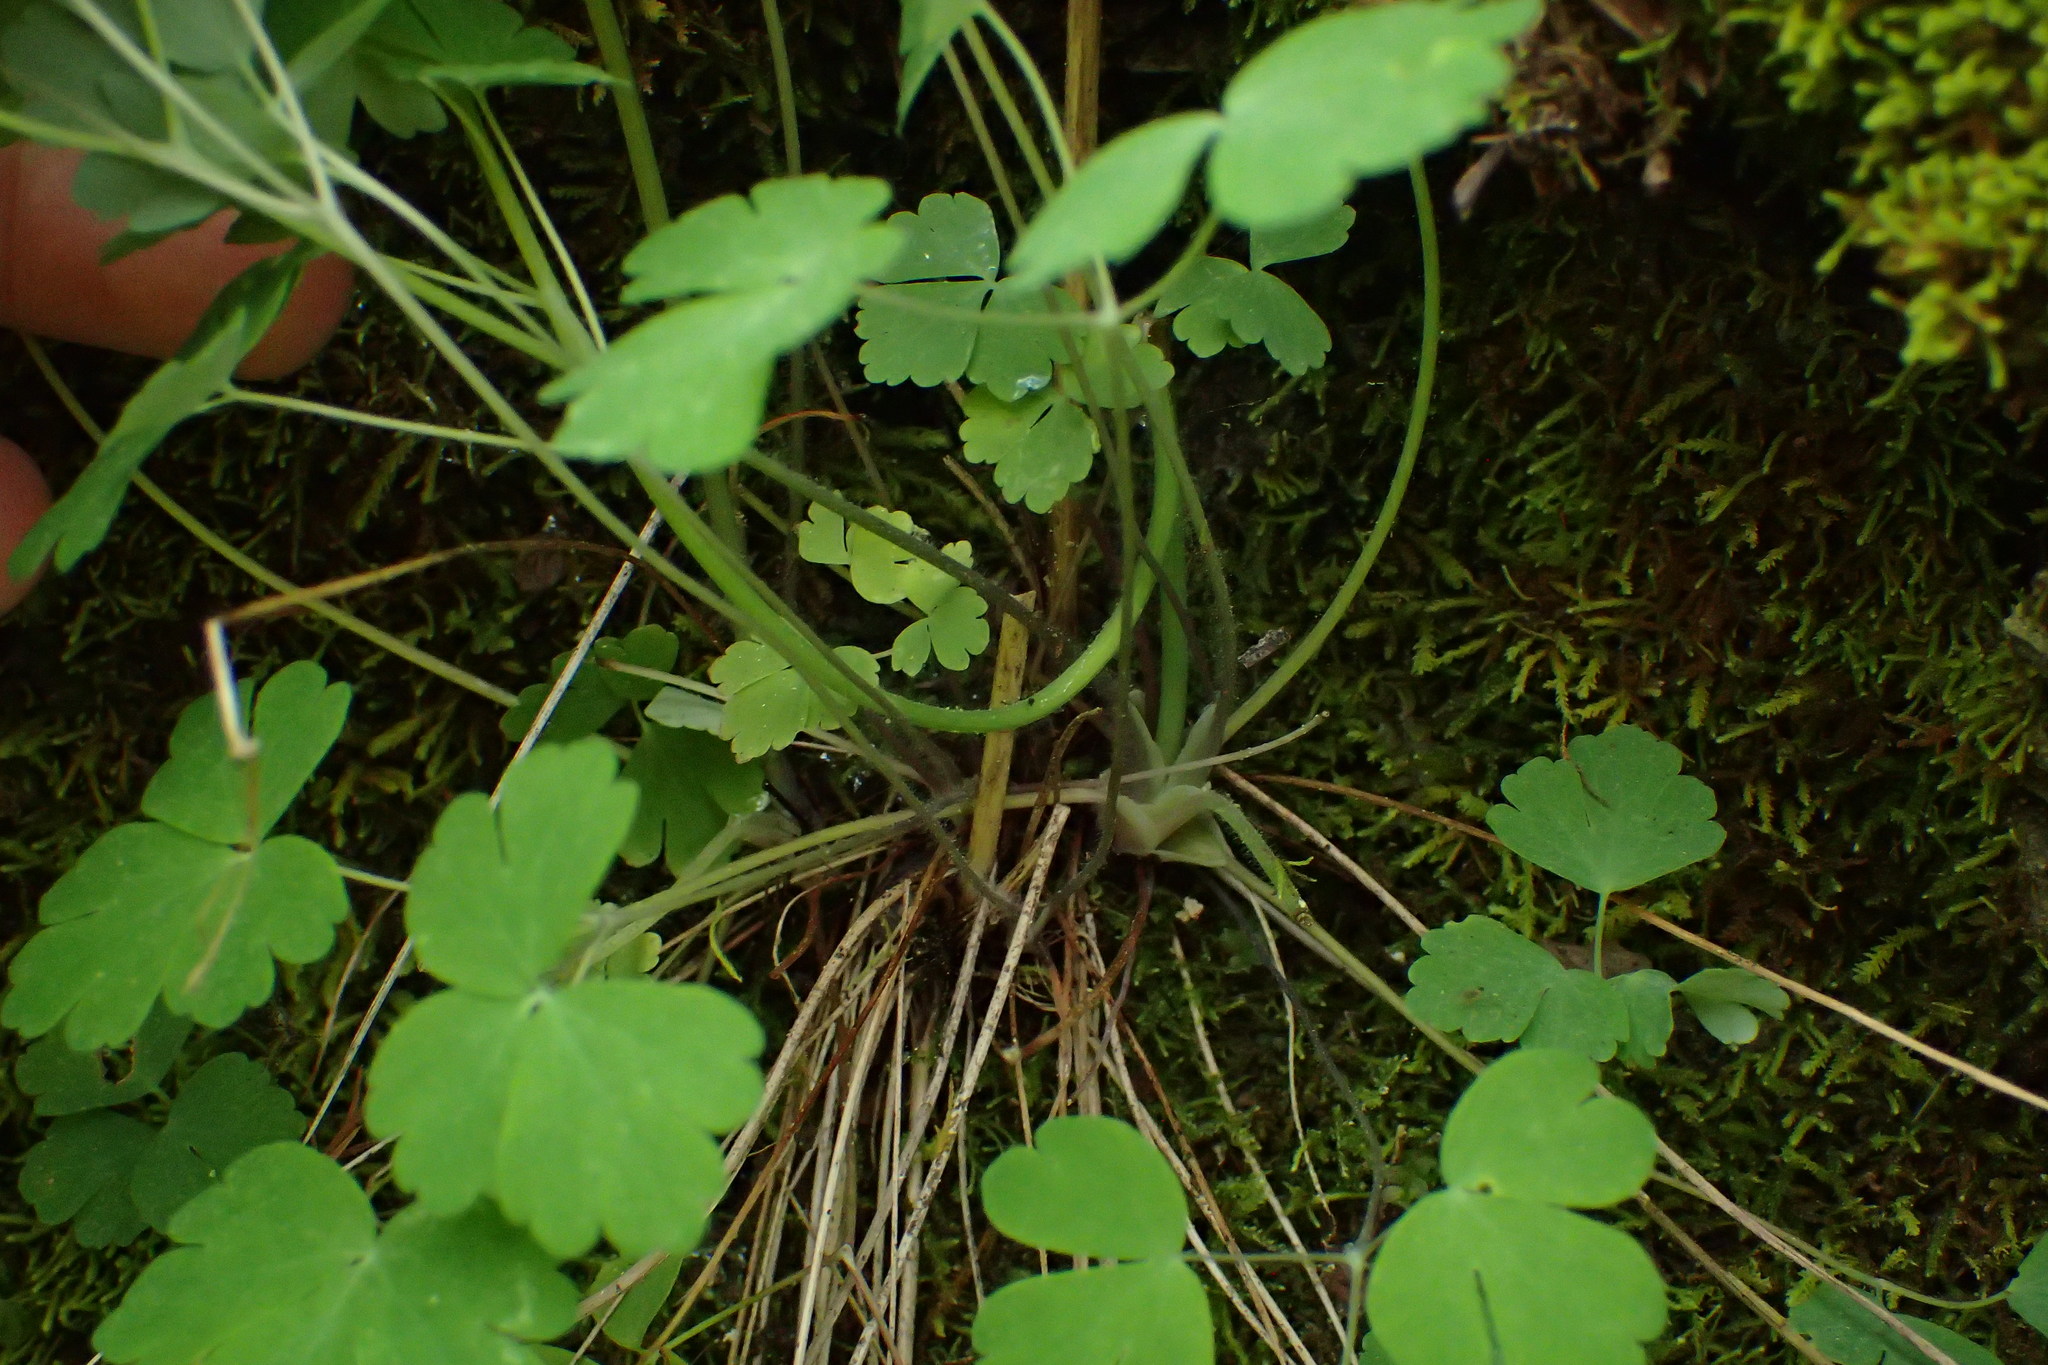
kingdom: Plantae
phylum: Tracheophyta
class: Magnoliopsida
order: Ranunculales
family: Ranunculaceae
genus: Aquilegia
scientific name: Aquilegia canadensis
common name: American columbine
